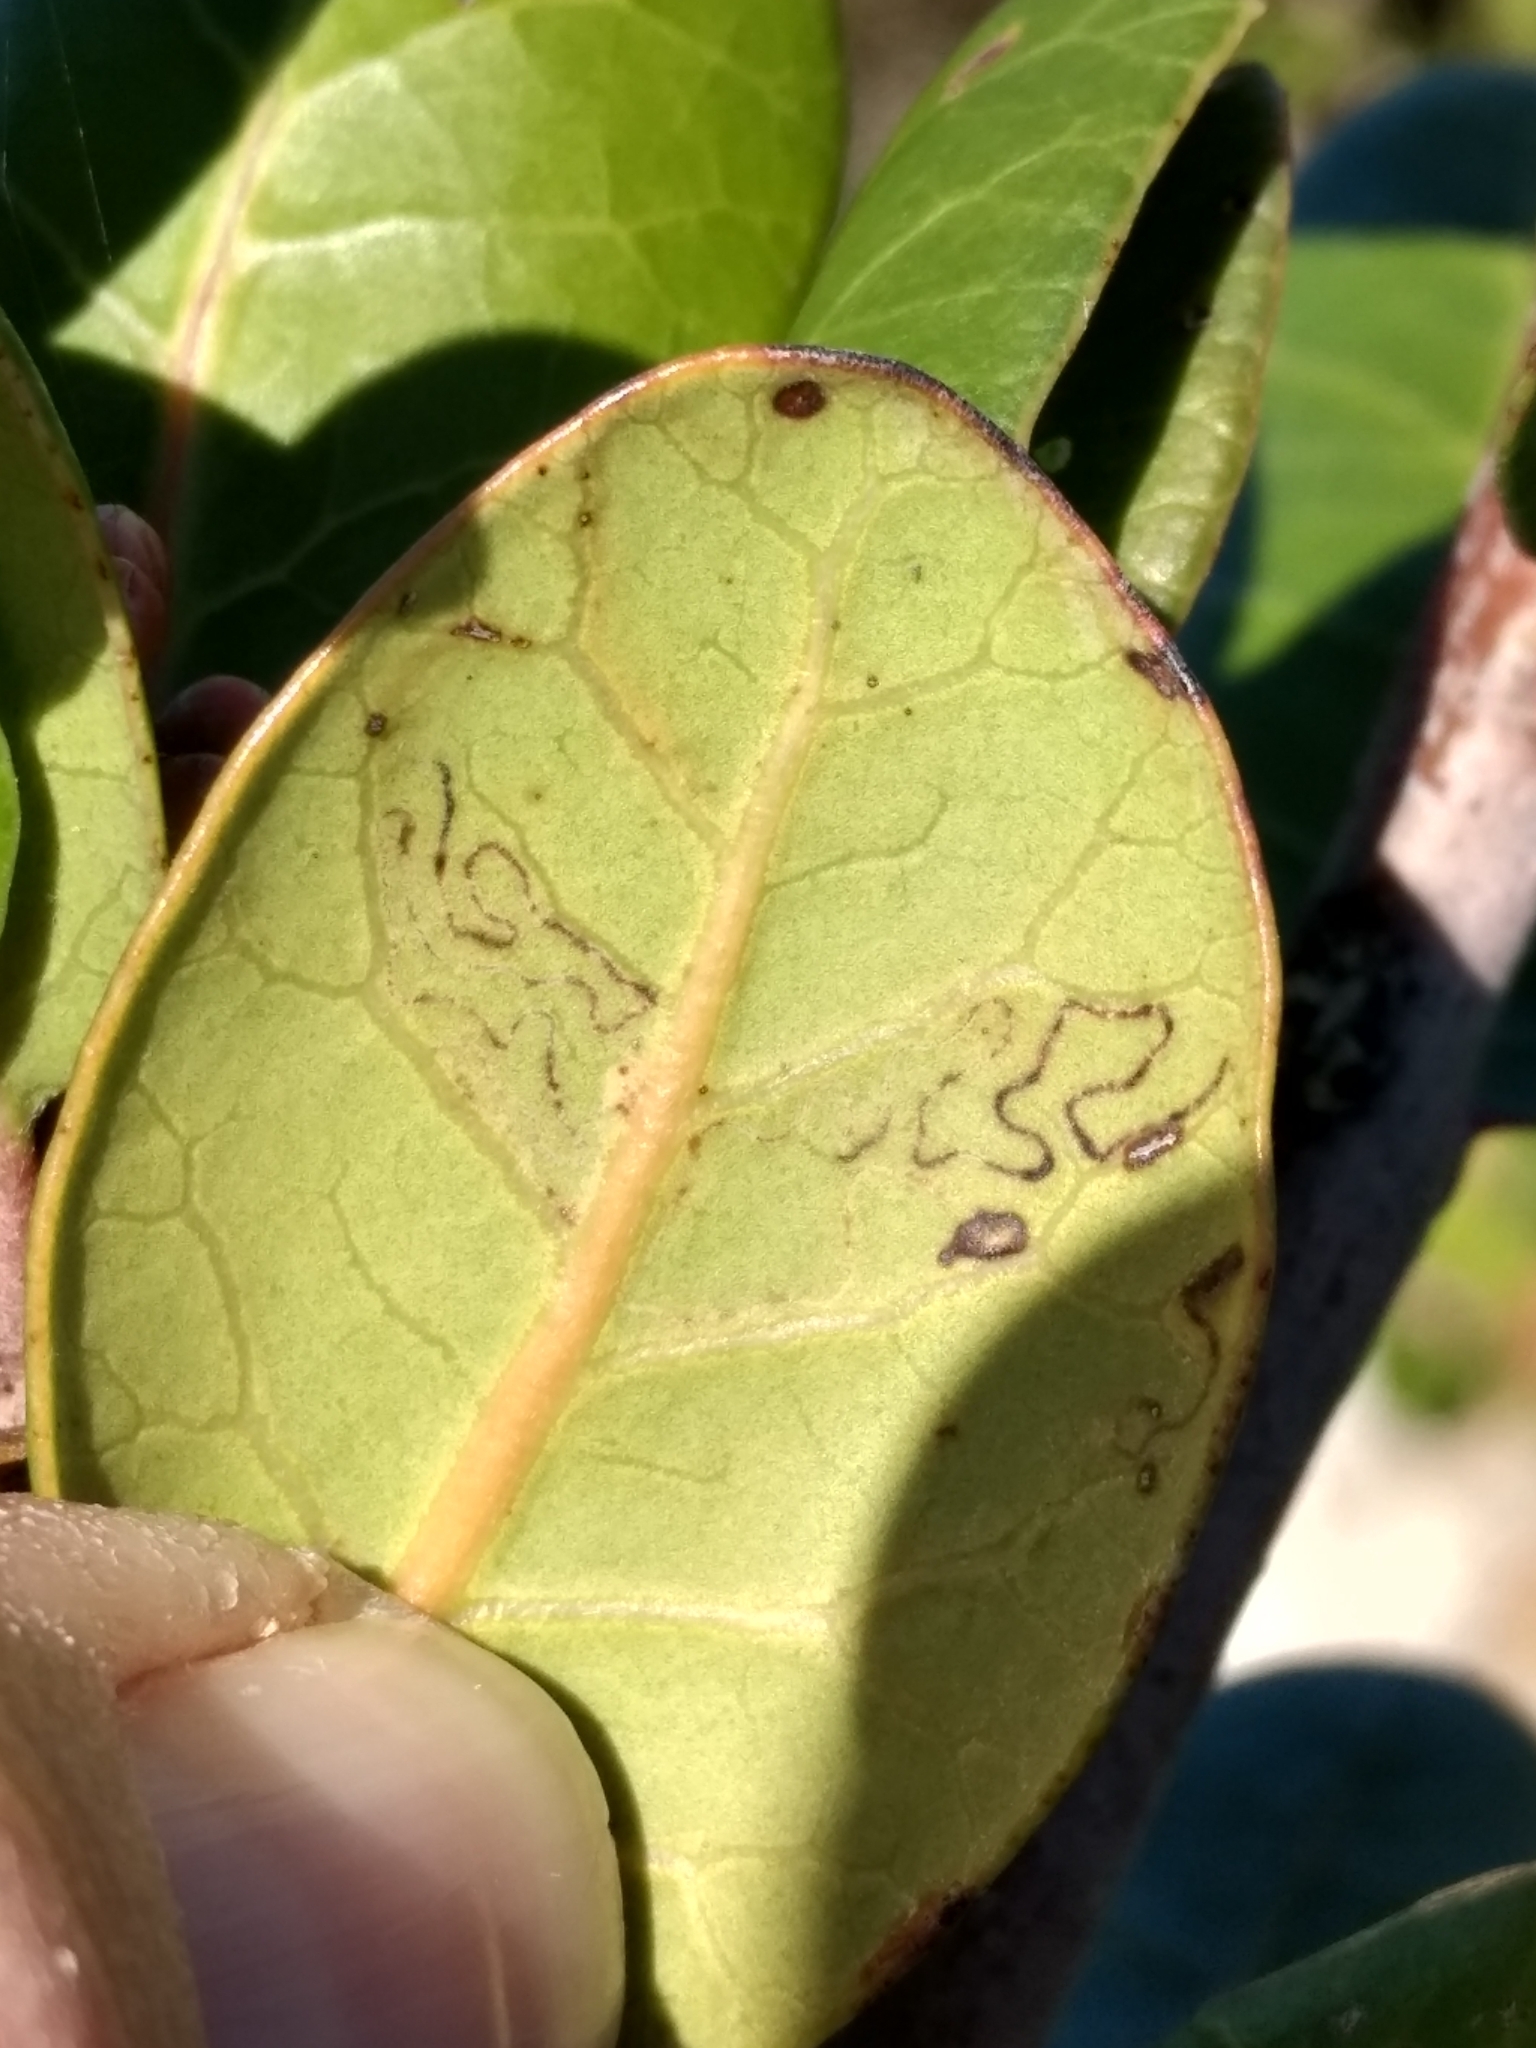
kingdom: Plantae
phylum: Tracheophyta
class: Magnoliopsida
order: Sapindales
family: Anacardiaceae
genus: Rhus
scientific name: Rhus integrifolia
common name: Lemonade sumac
